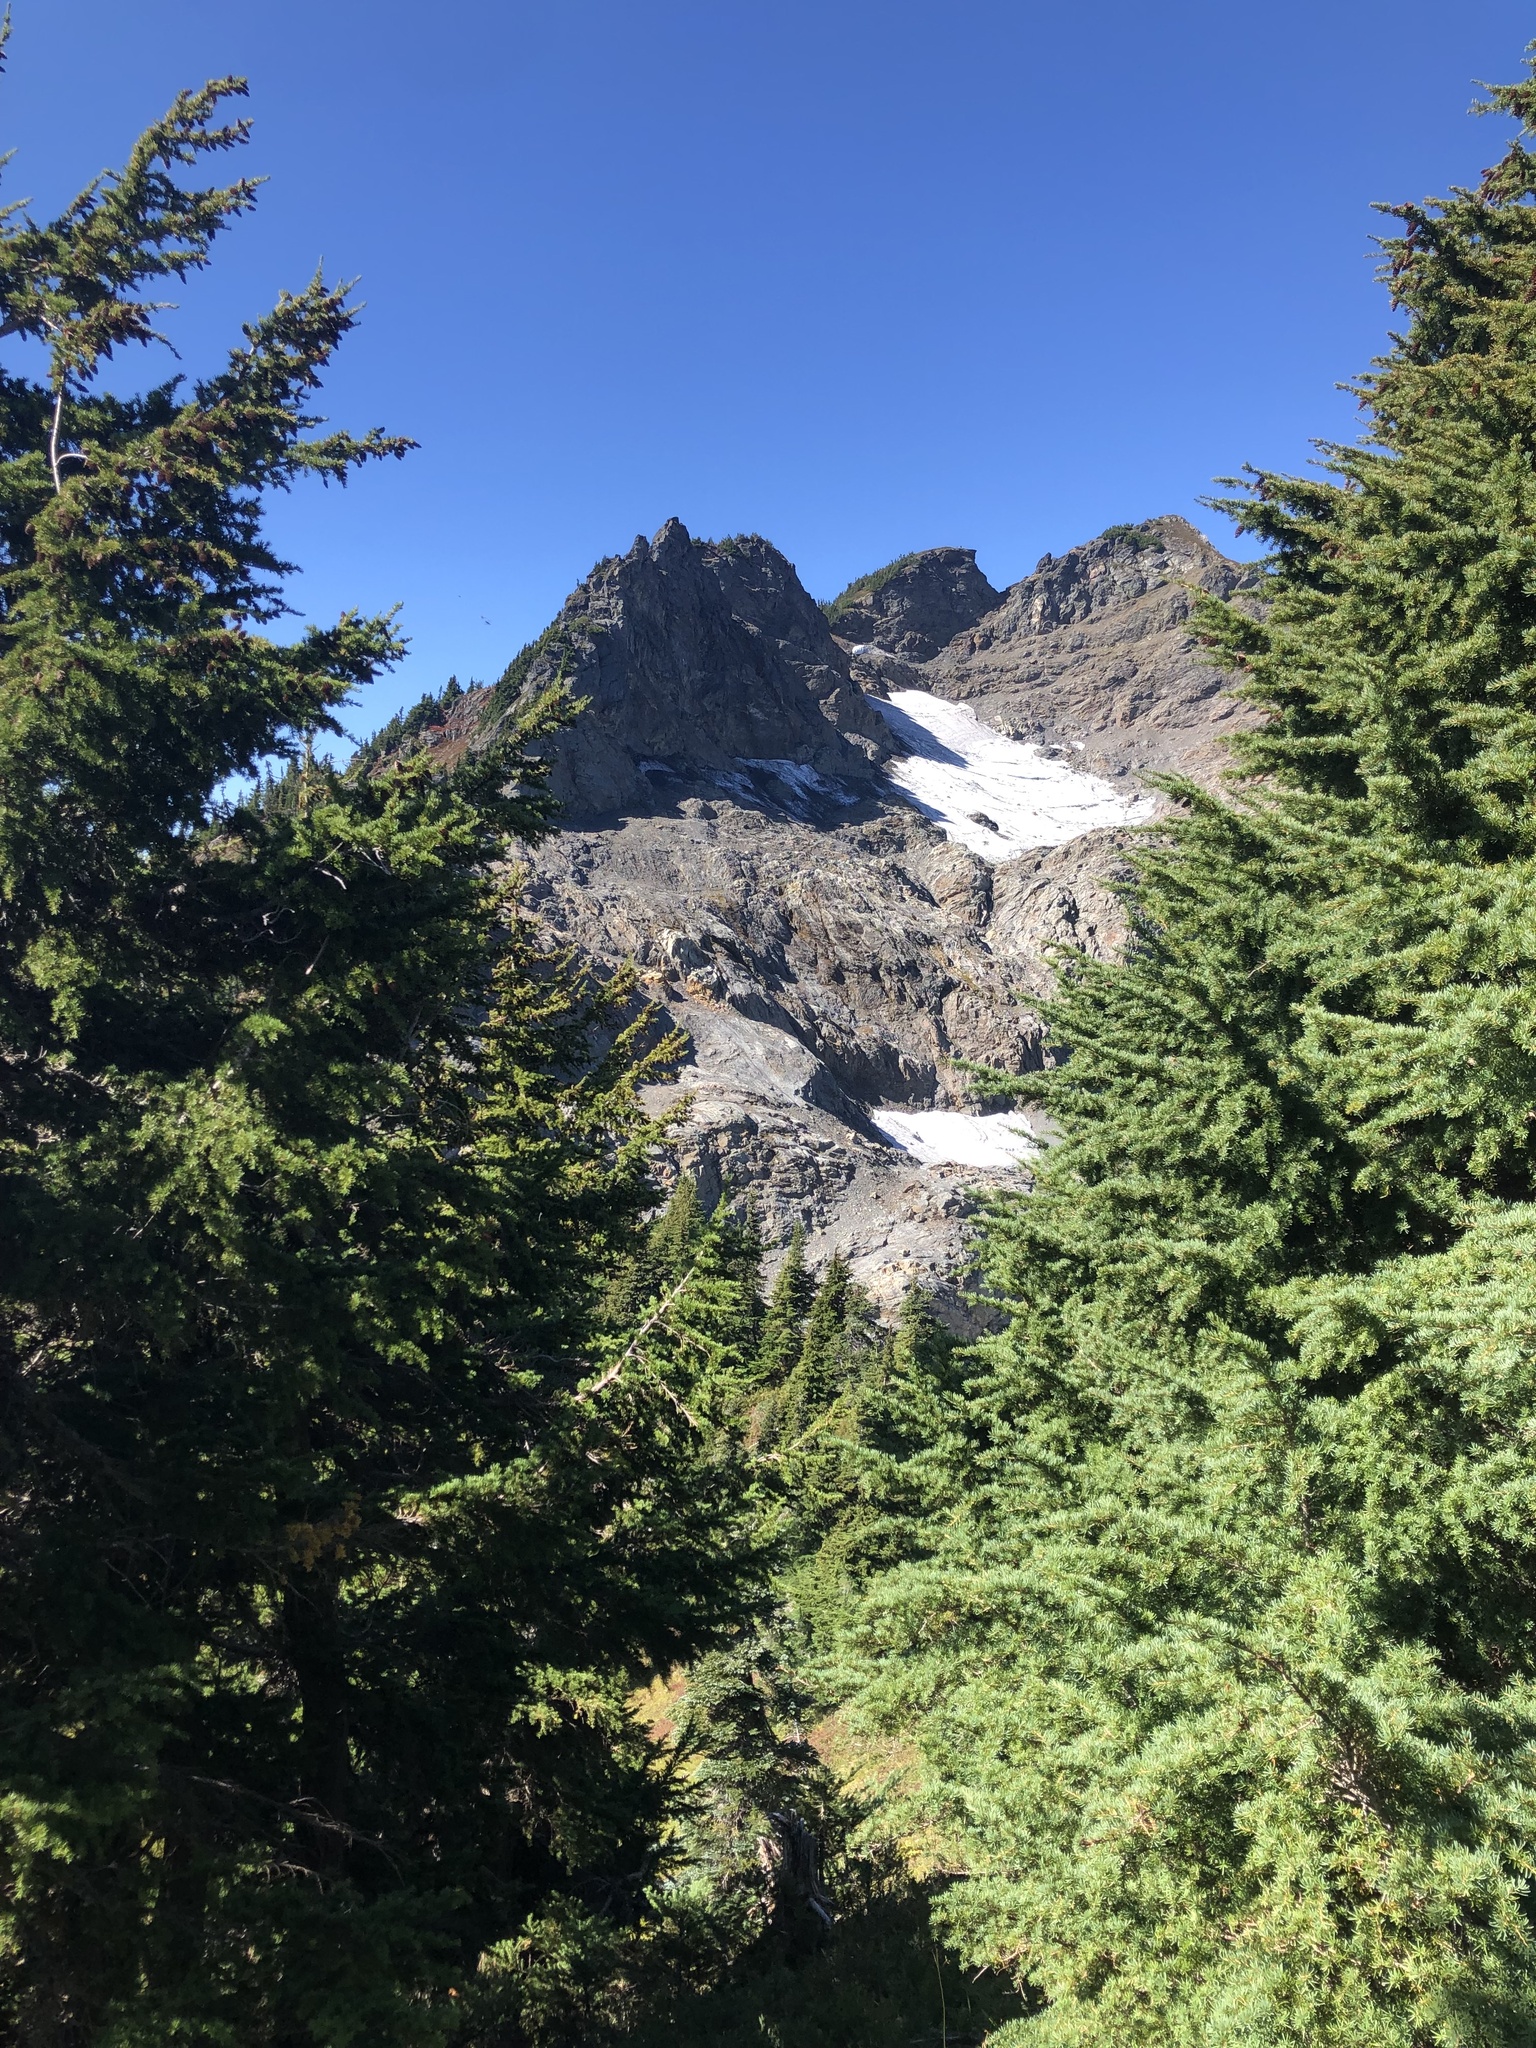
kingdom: Plantae
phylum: Tracheophyta
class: Pinopsida
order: Pinales
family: Pinaceae
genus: Tsuga
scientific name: Tsuga mertensiana
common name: Mountain hemlock
